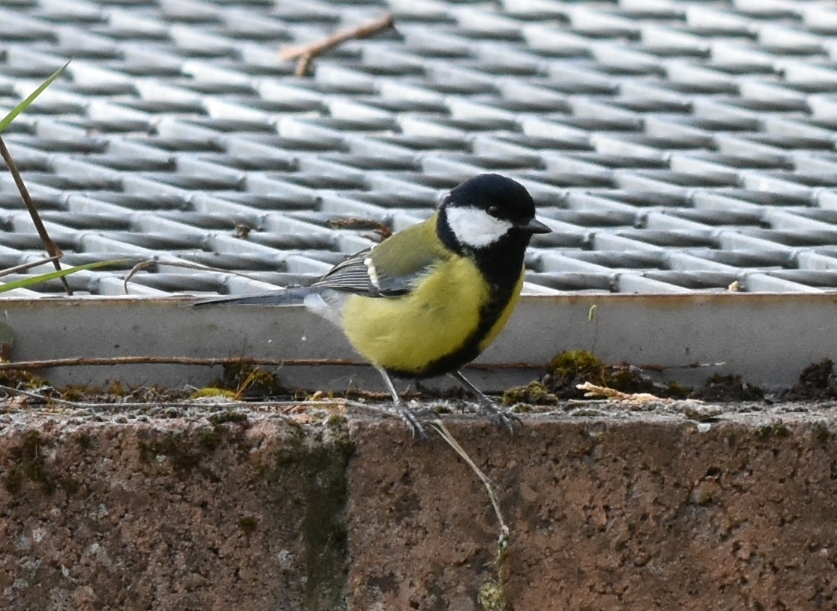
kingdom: Animalia
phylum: Chordata
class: Aves
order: Passeriformes
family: Paridae
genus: Parus
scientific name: Parus major
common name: Great tit
